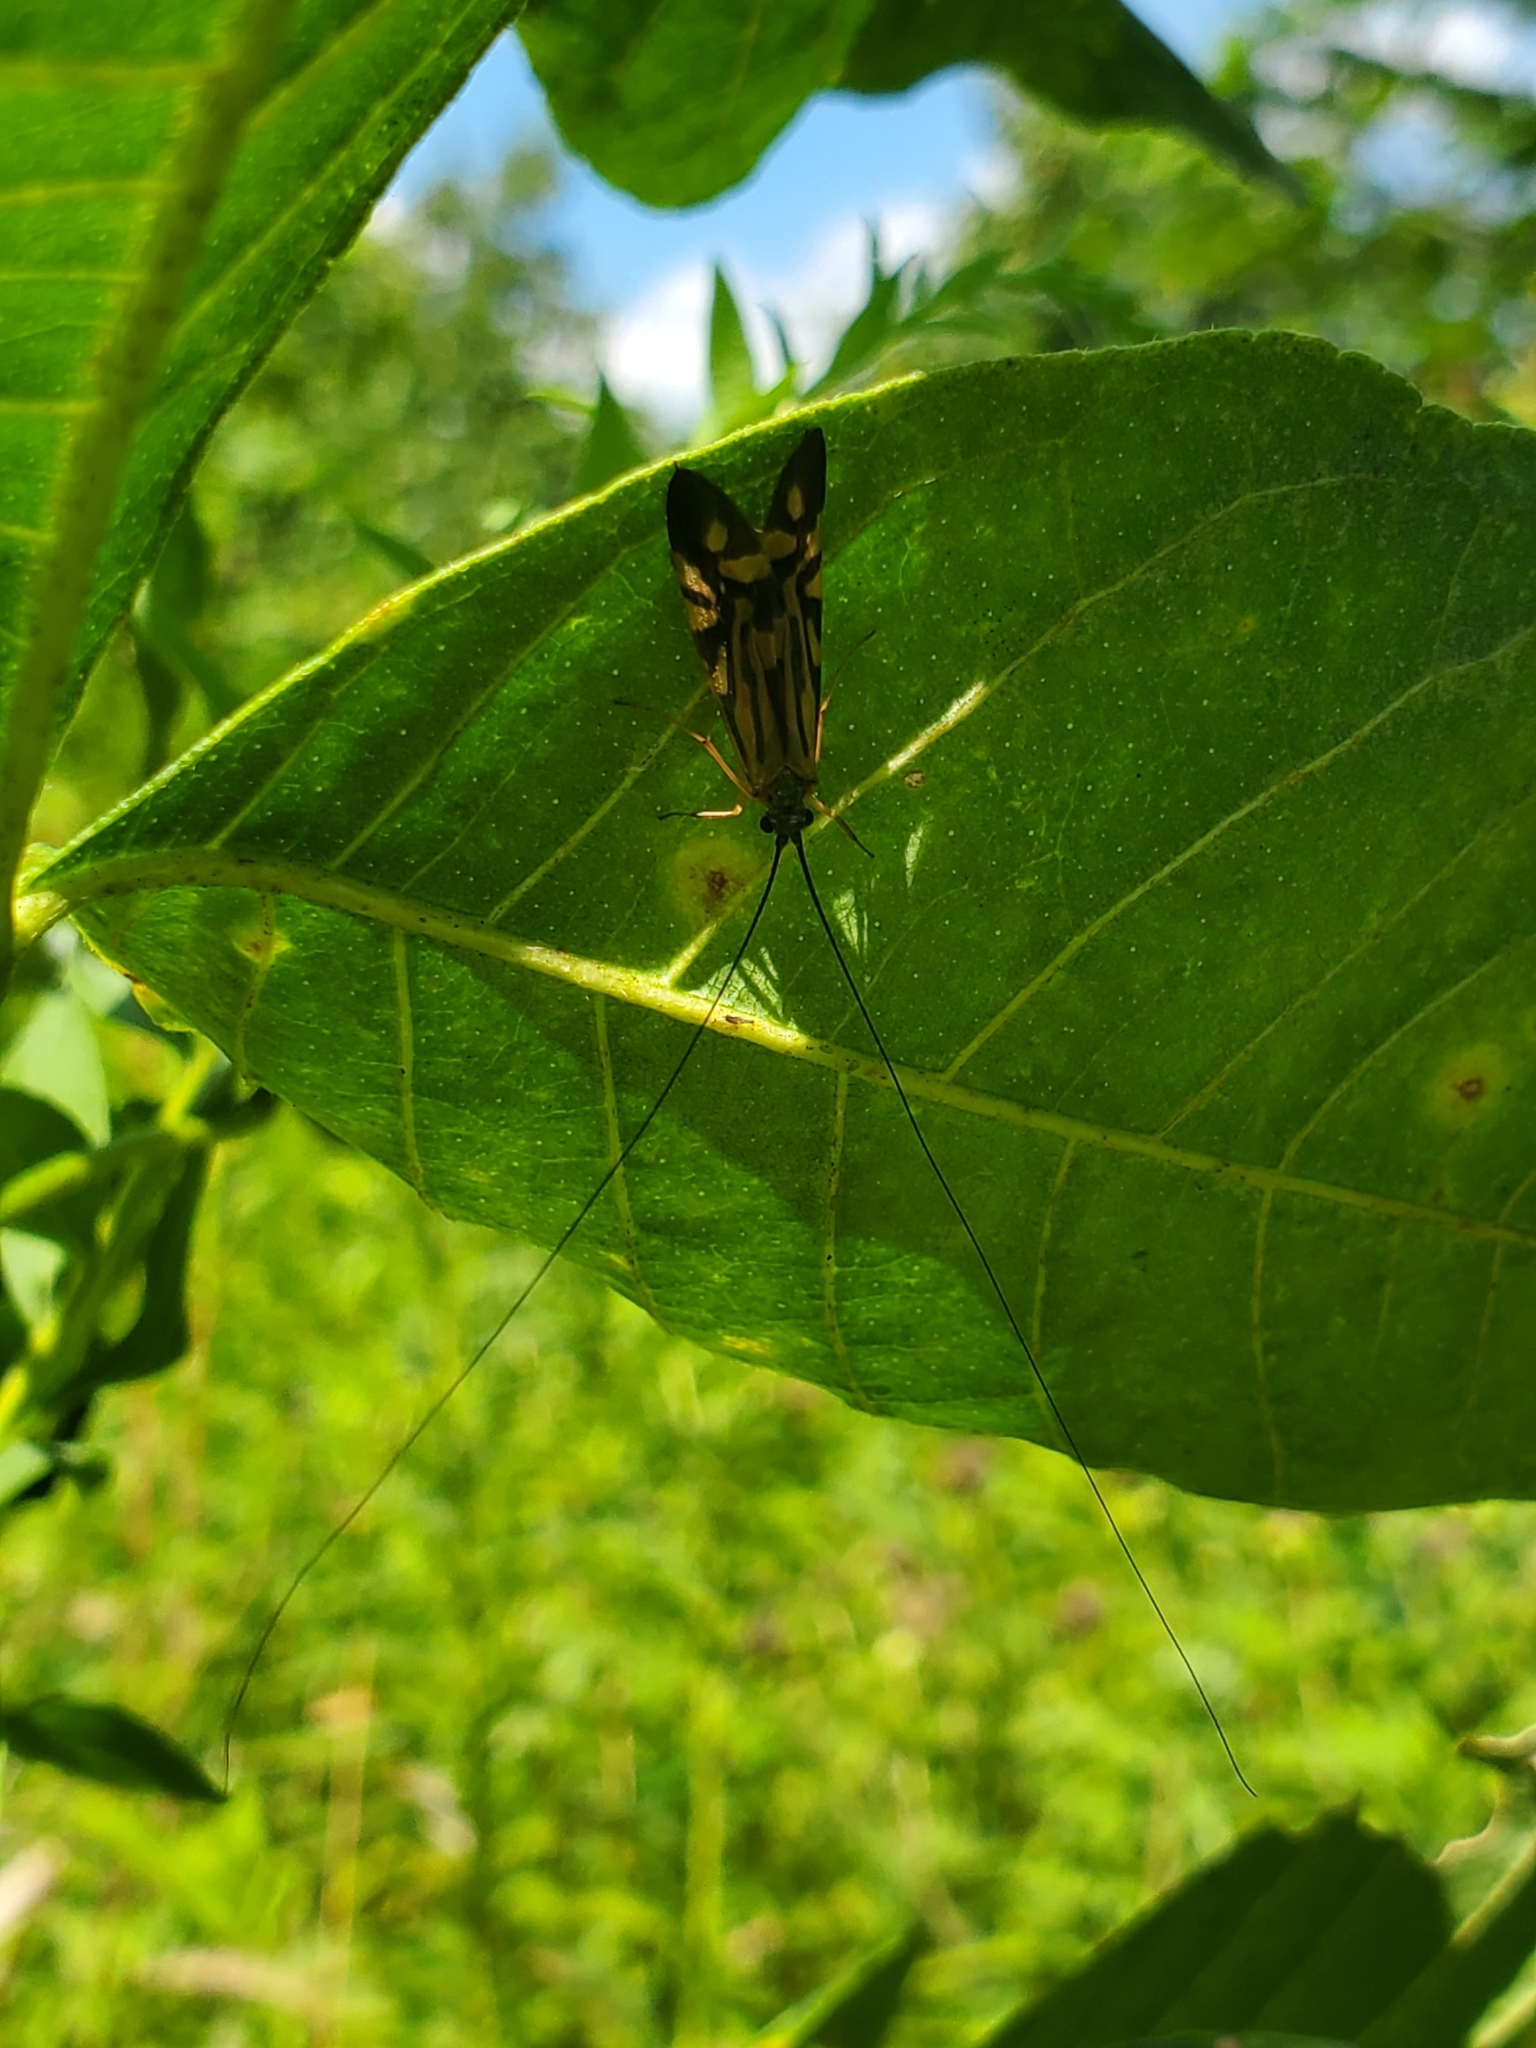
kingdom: Animalia
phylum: Arthropoda
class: Insecta
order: Trichoptera
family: Hydropsychidae
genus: Macrostemum
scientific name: Macrostemum zebratum
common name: Zebra caddisfly
